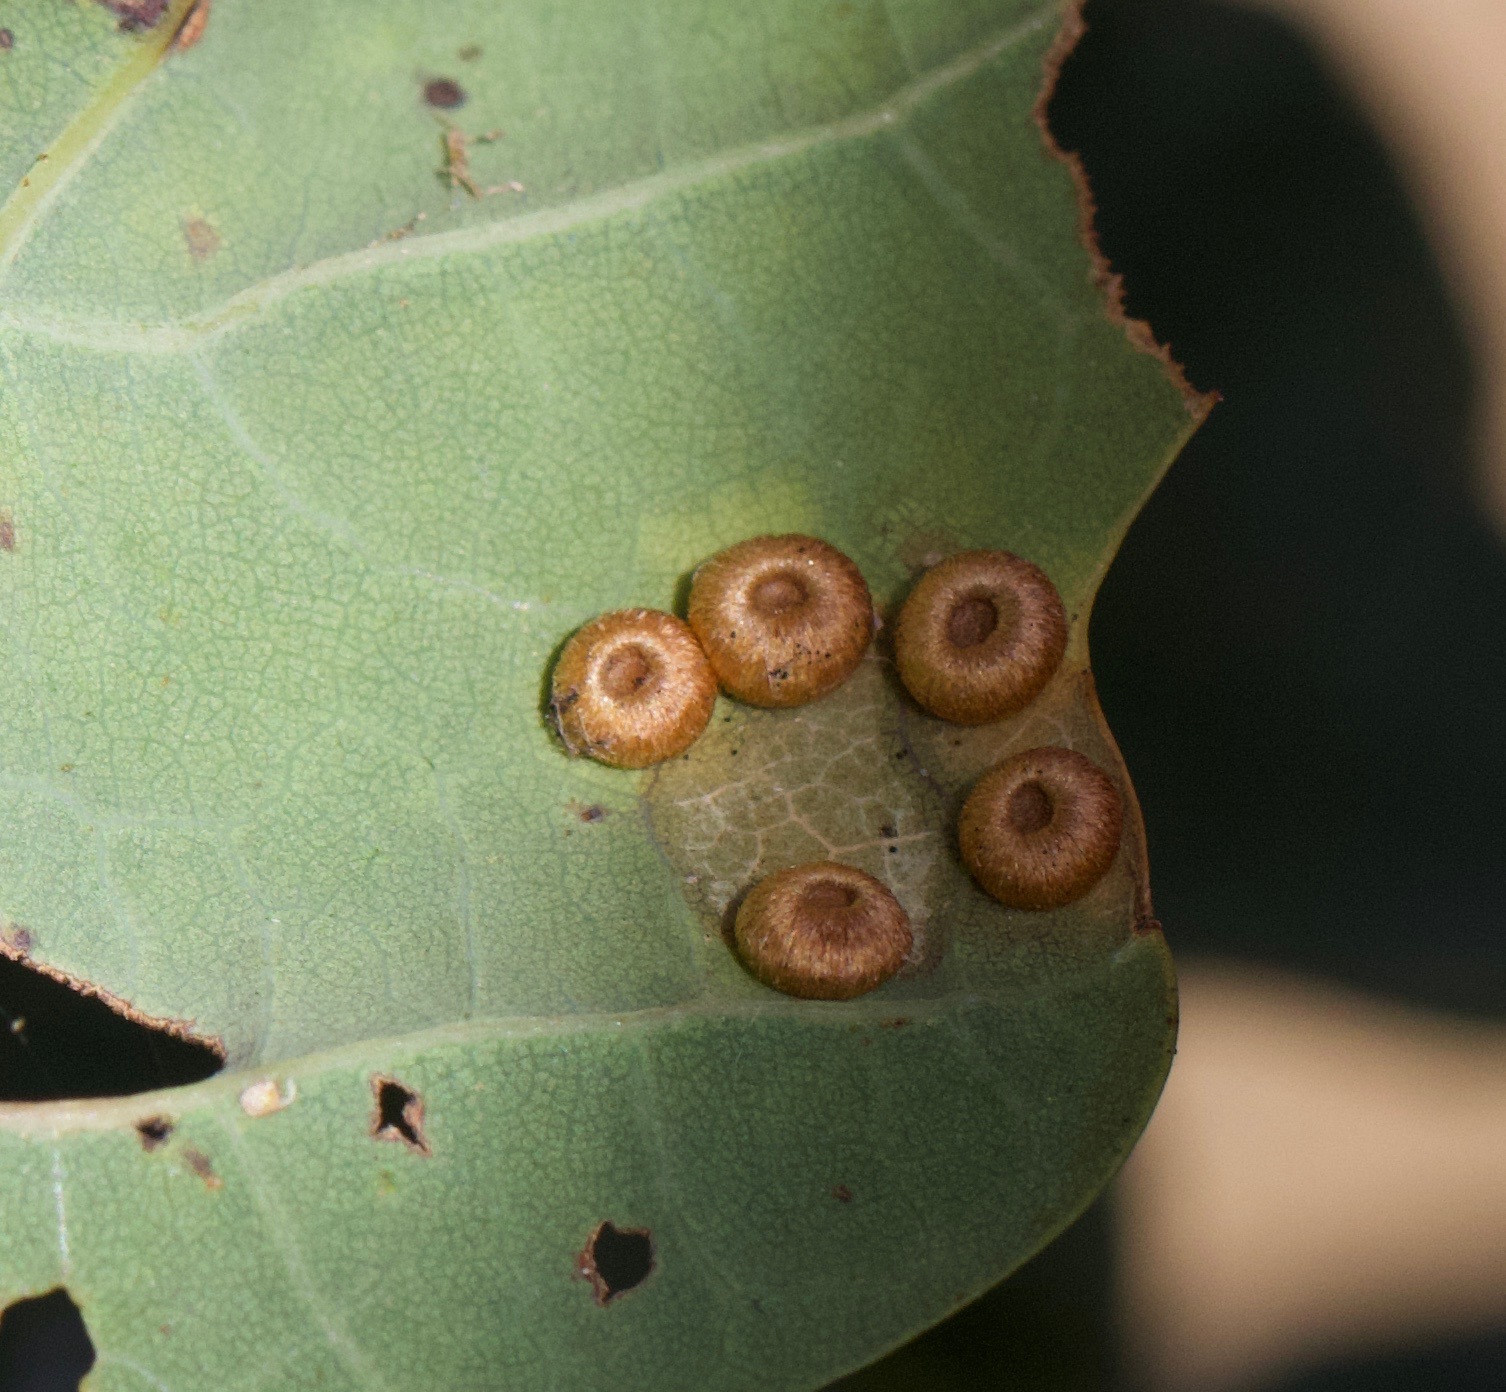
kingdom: Animalia
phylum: Arthropoda
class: Insecta
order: Hymenoptera
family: Cynipidae
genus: Neuroterus
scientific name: Neuroterus numismalis
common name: Silk-button spangle gall
